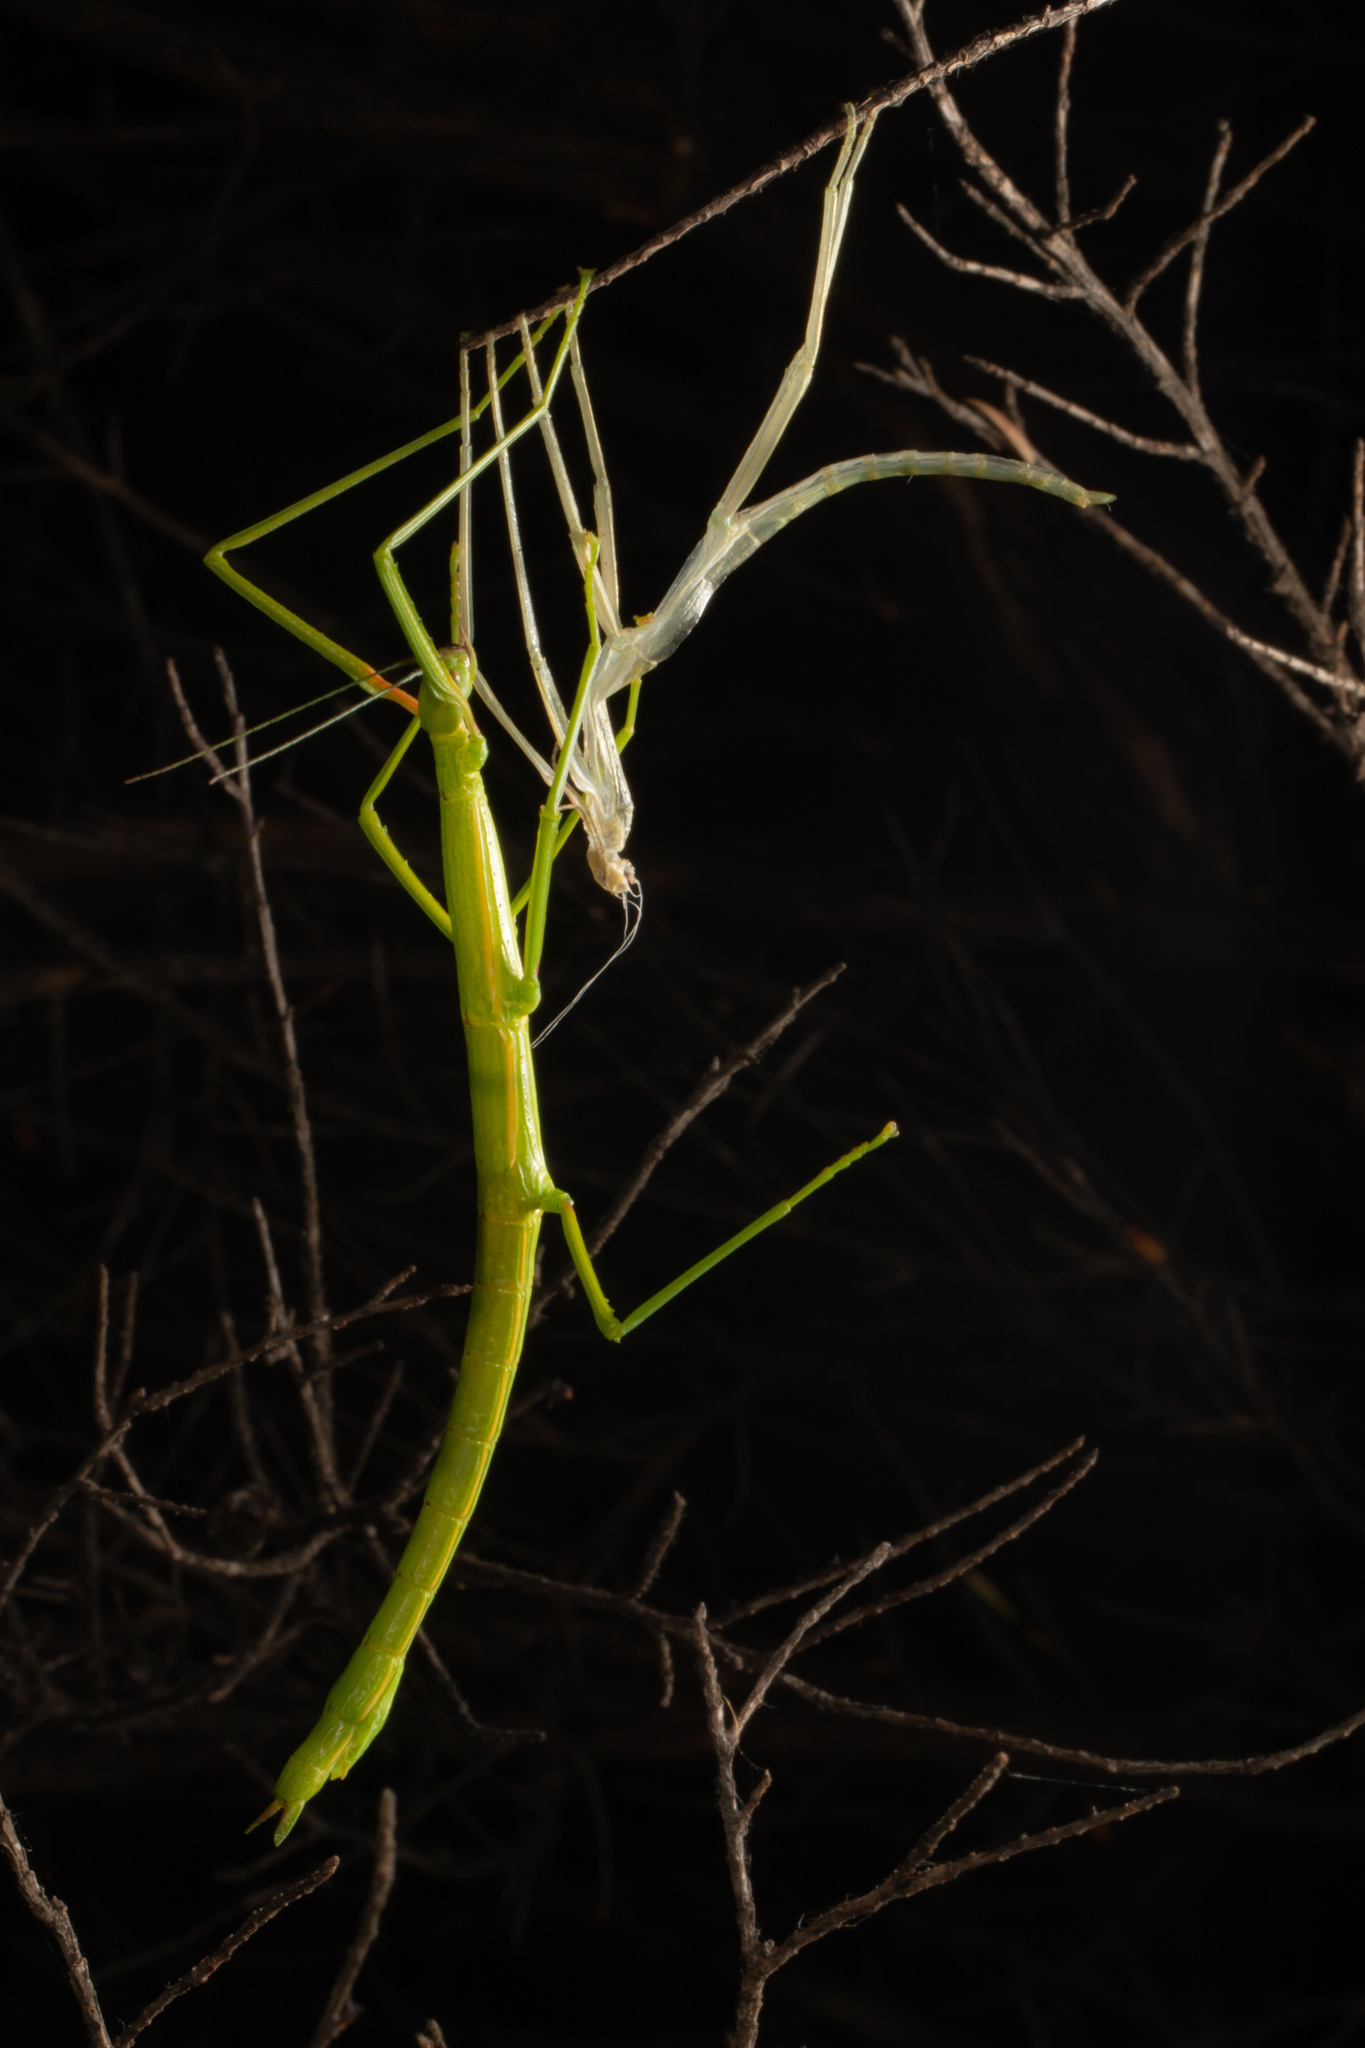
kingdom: Animalia
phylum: Arthropoda
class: Insecta
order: Phasmida
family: Phasmatidae
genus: Clitarchus
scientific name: Clitarchus hookeri
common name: Smooth stick insect
